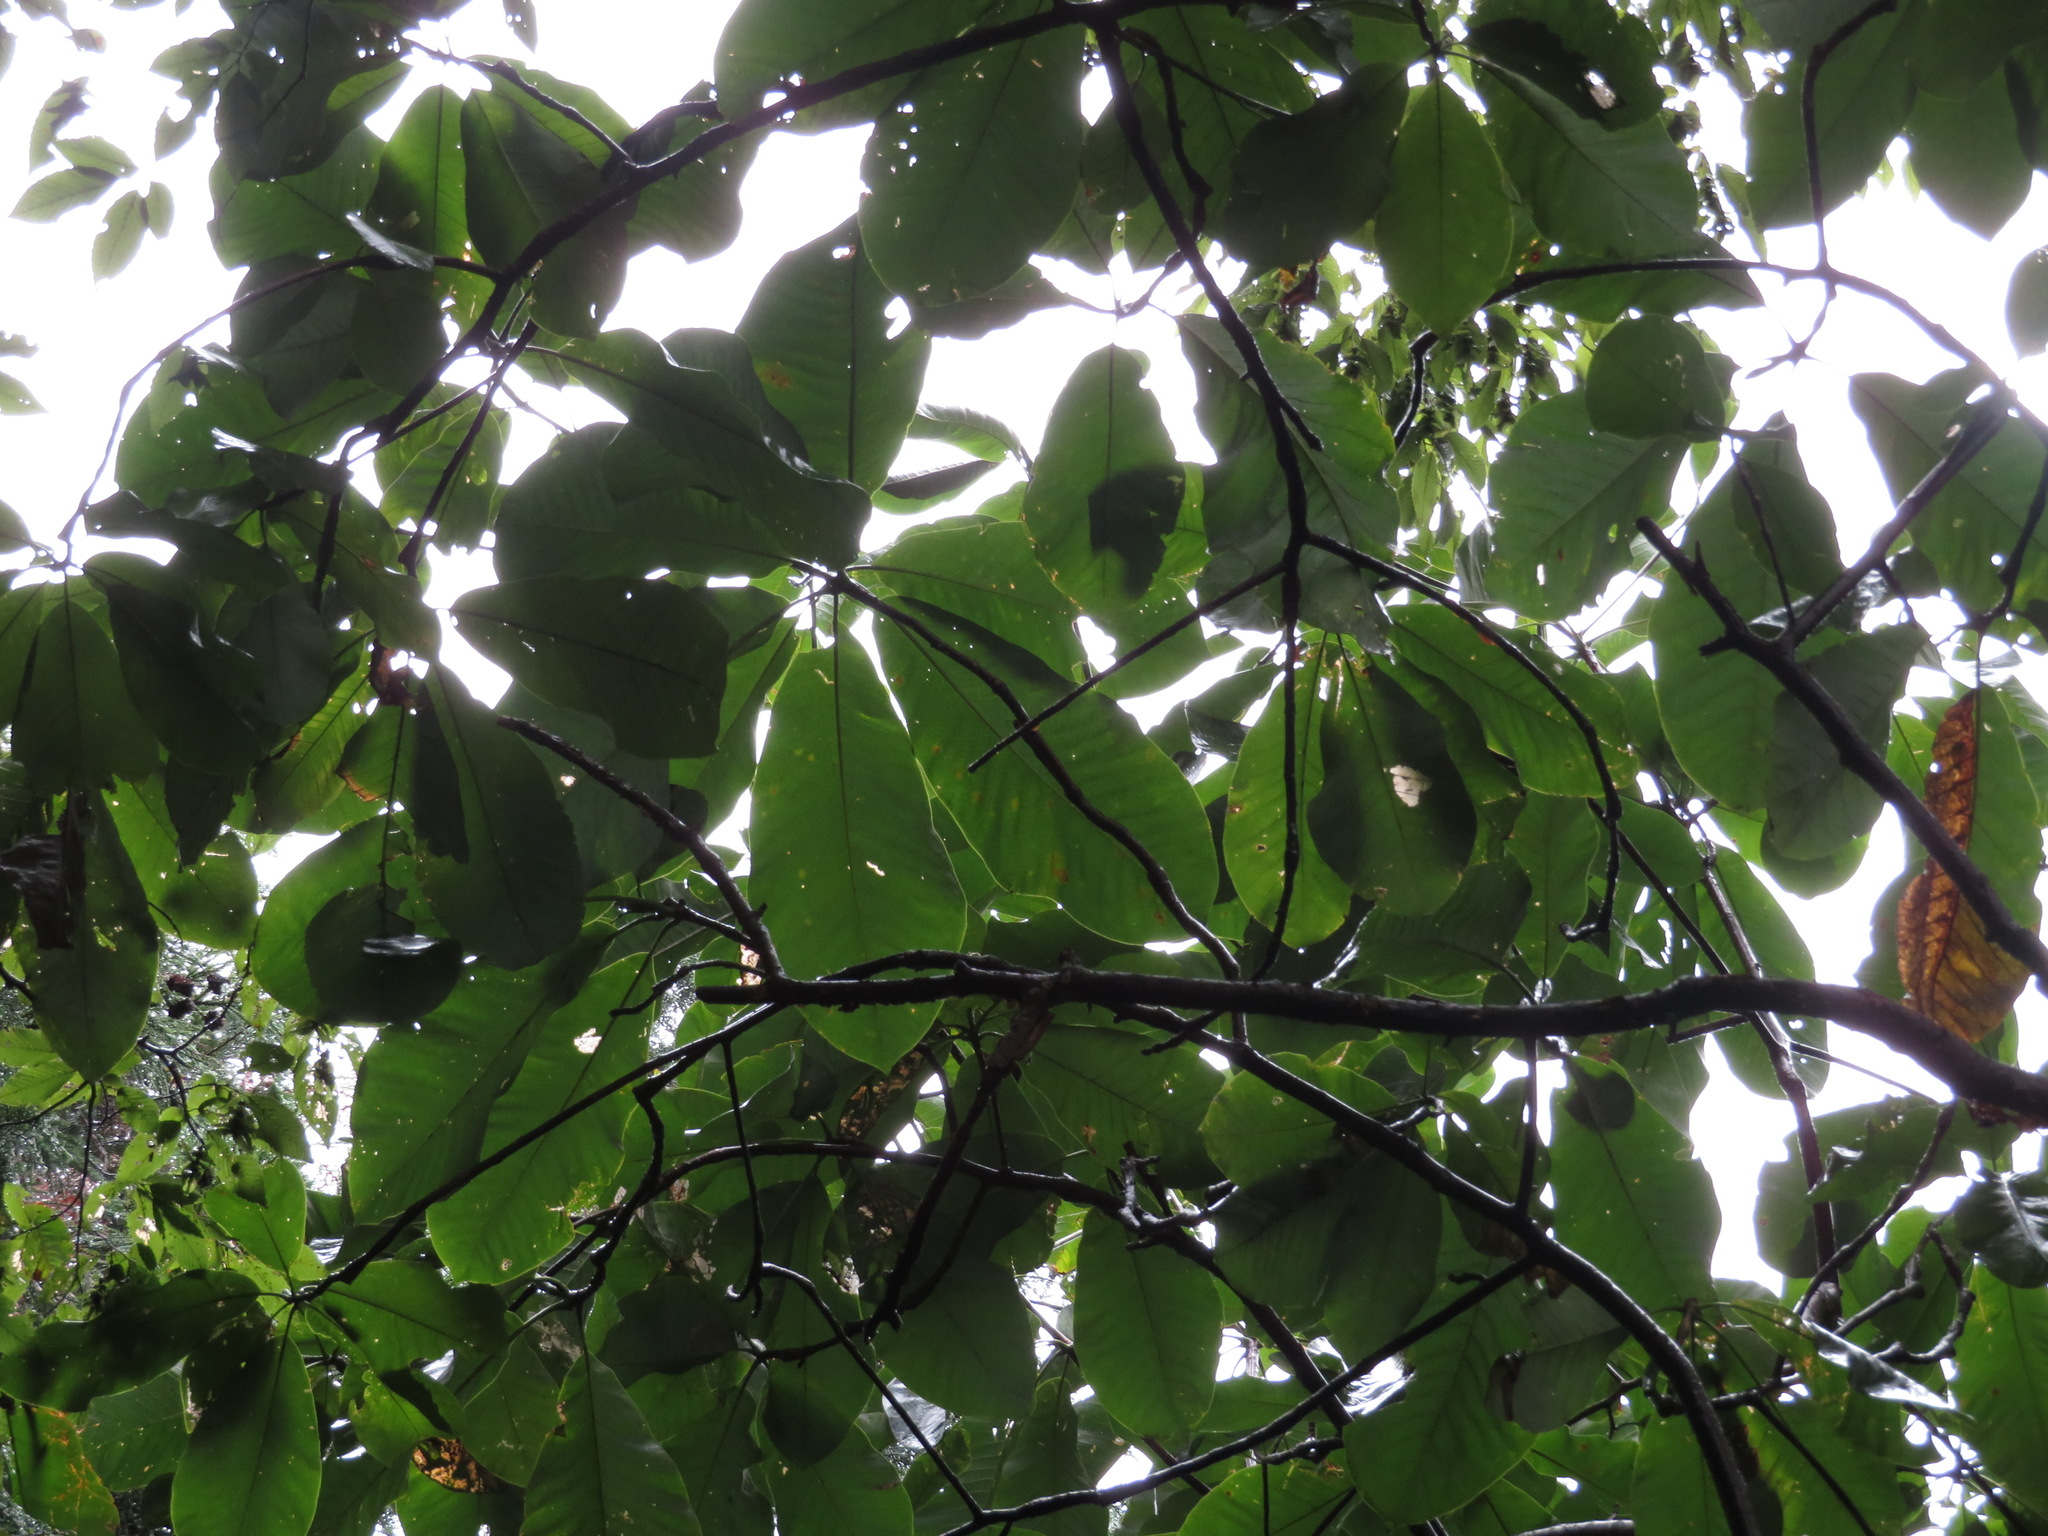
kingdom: Plantae
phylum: Tracheophyta
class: Magnoliopsida
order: Magnoliales
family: Magnoliaceae
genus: Magnolia
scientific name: Magnolia obovata
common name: Japanese whitebark magnolia
